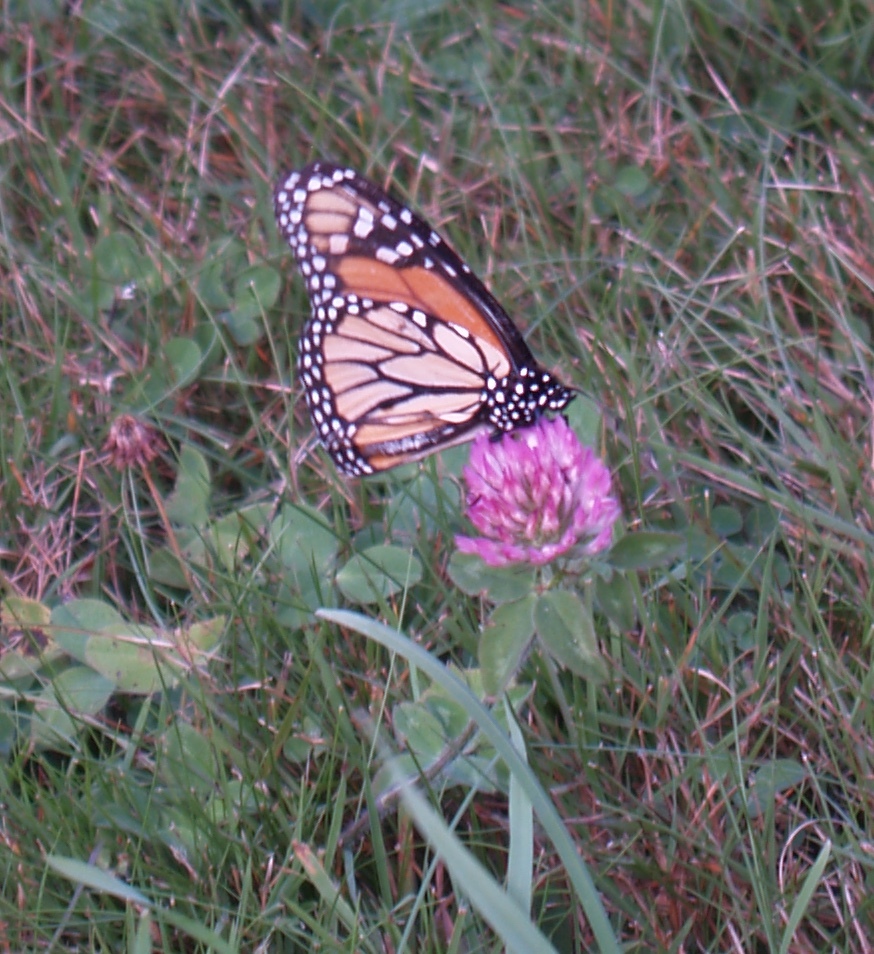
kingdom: Animalia
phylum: Arthropoda
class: Insecta
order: Lepidoptera
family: Nymphalidae
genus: Danaus
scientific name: Danaus plexippus
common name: Monarch
